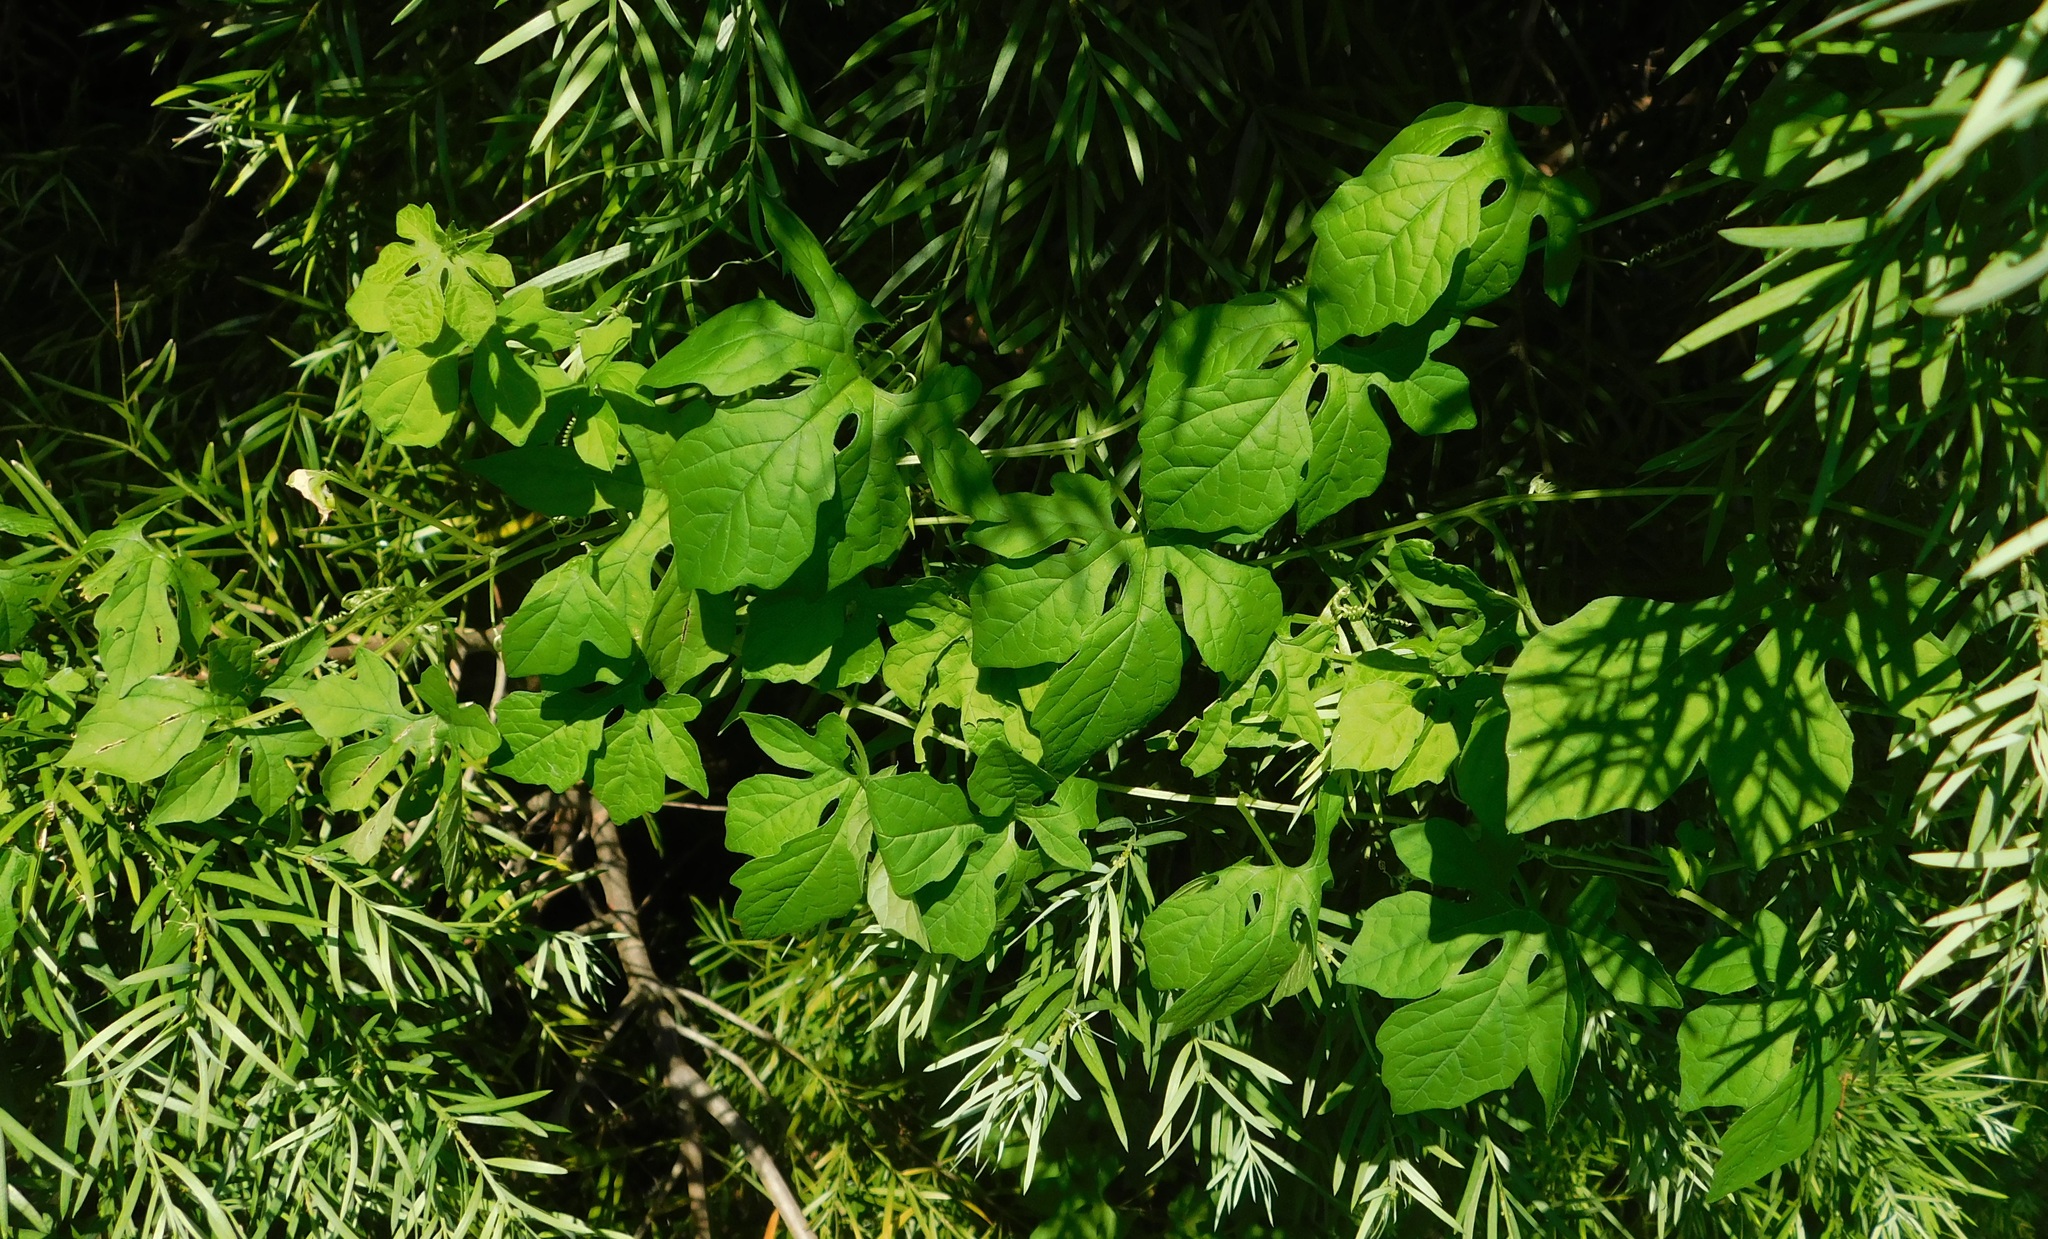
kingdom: Plantae
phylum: Tracheophyta
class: Magnoliopsida
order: Cucurbitales
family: Cucurbitaceae
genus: Momordica
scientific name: Momordica charantia
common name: Balsampear
